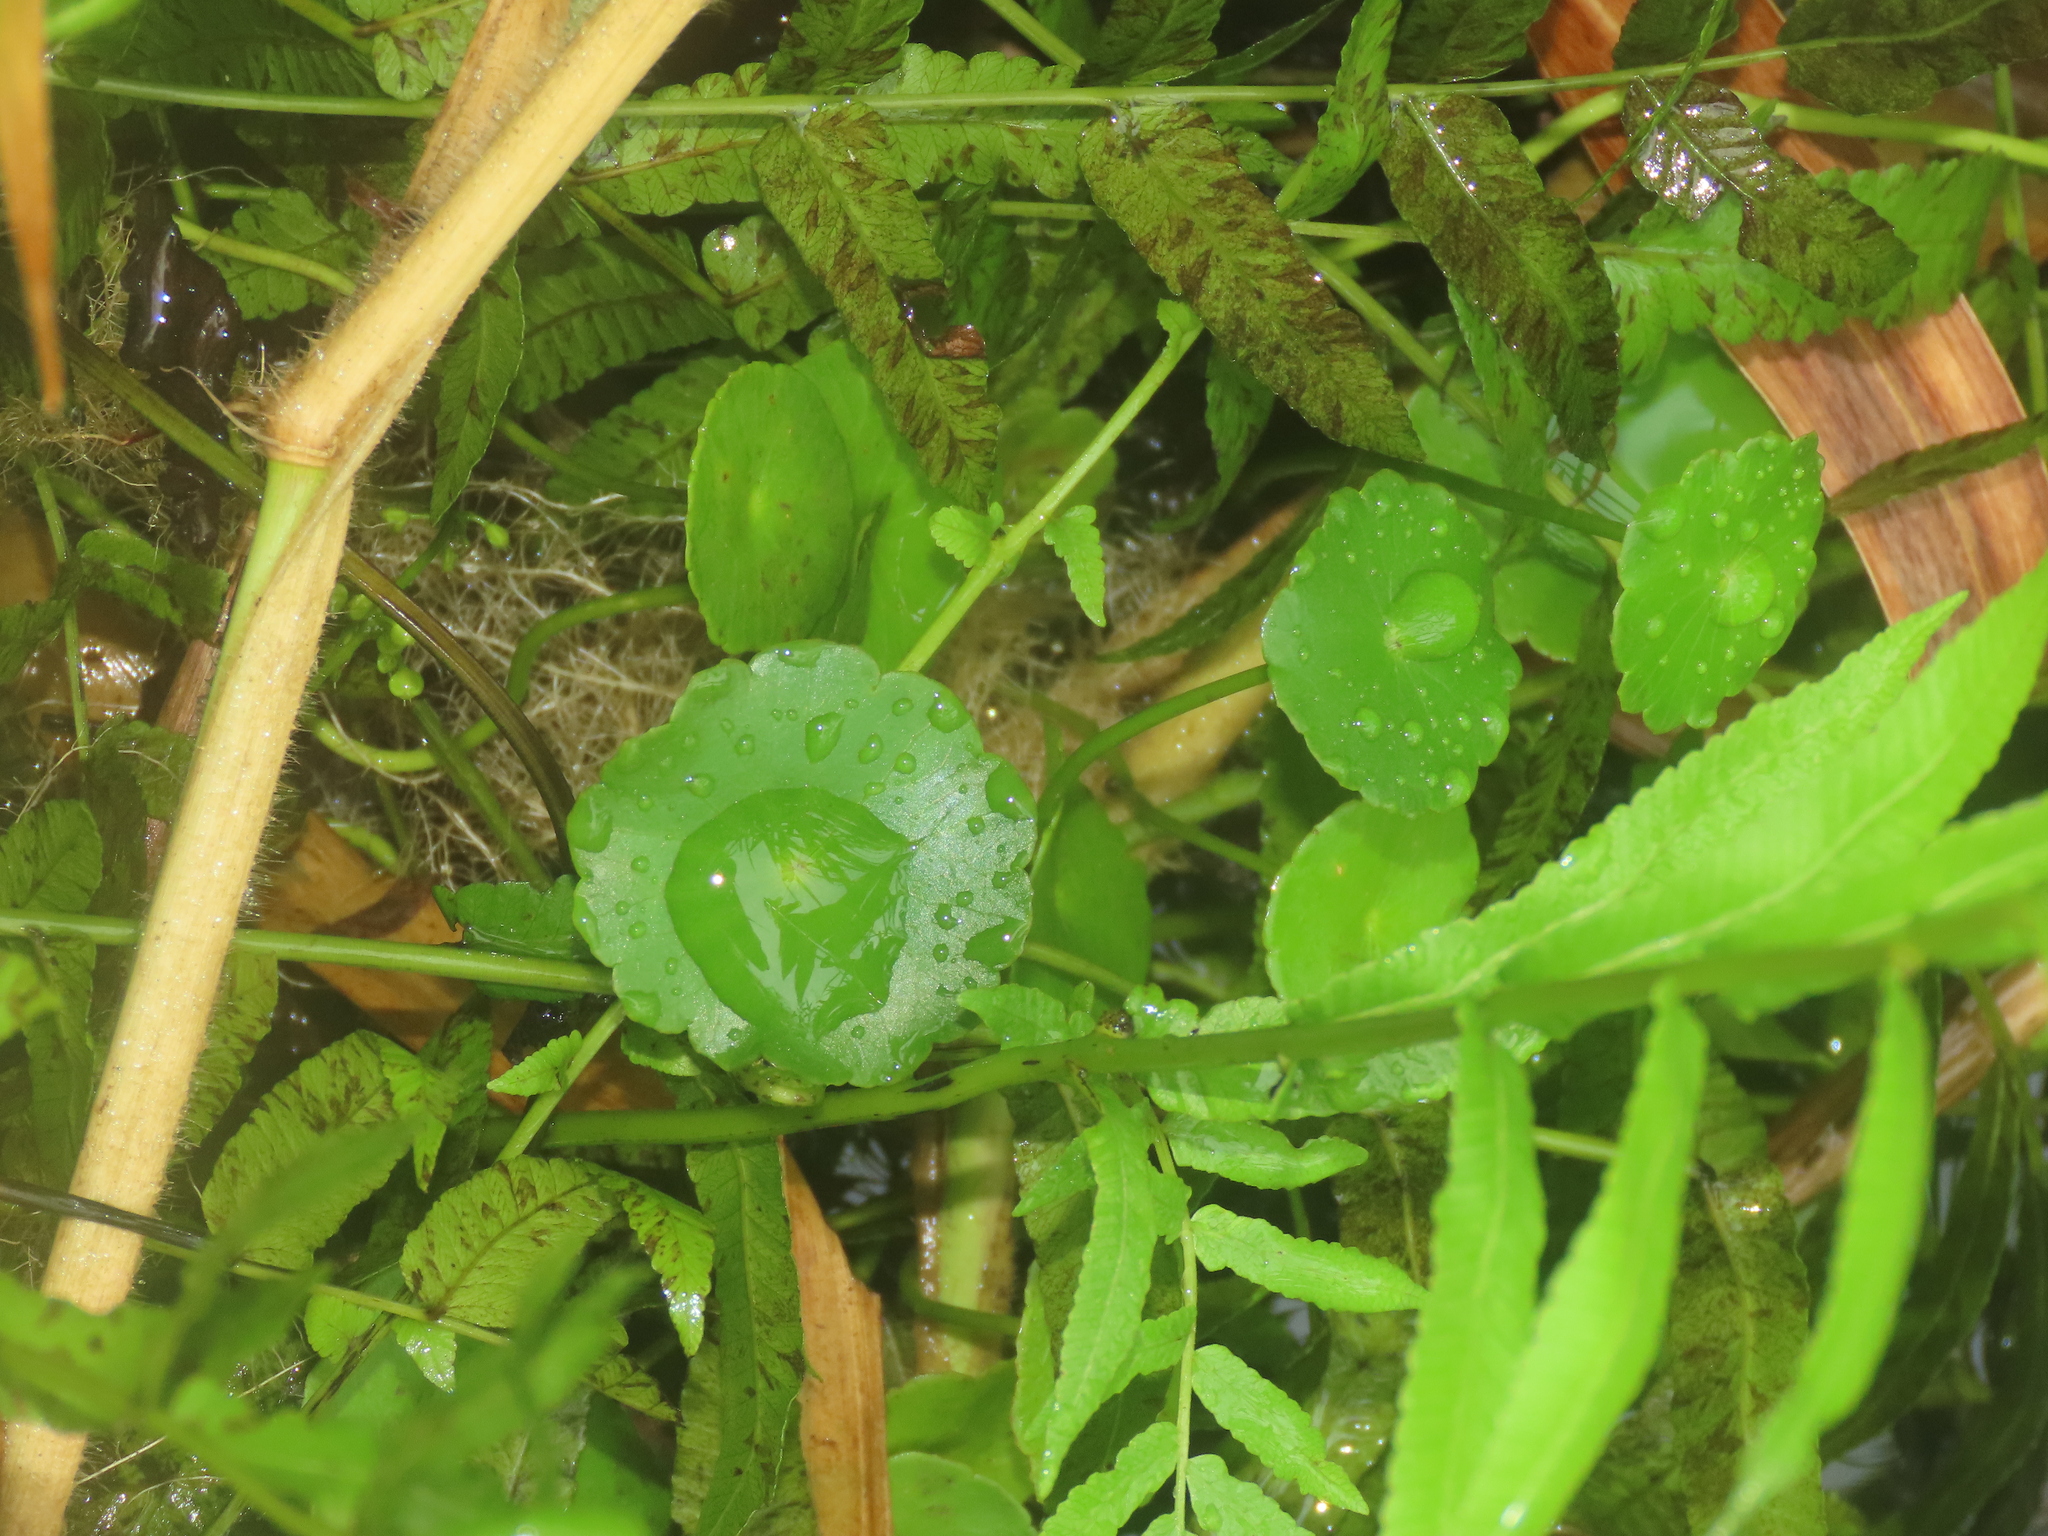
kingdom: Plantae
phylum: Tracheophyta
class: Magnoliopsida
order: Apiales
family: Araliaceae
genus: Hydrocotyle
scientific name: Hydrocotyle verticillata
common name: Whorled marshpennywort
